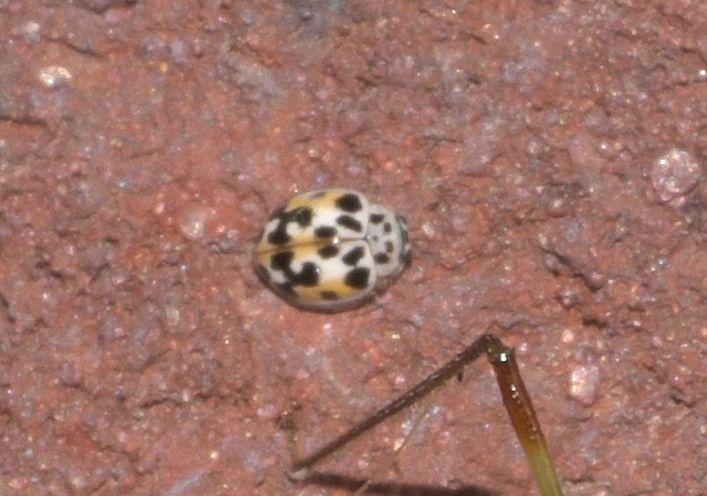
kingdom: Animalia
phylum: Arthropoda
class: Insecta
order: Coleoptera
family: Coccinellidae
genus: Psyllobora
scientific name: Psyllobora vigintimaculata
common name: Ladybird beetle
